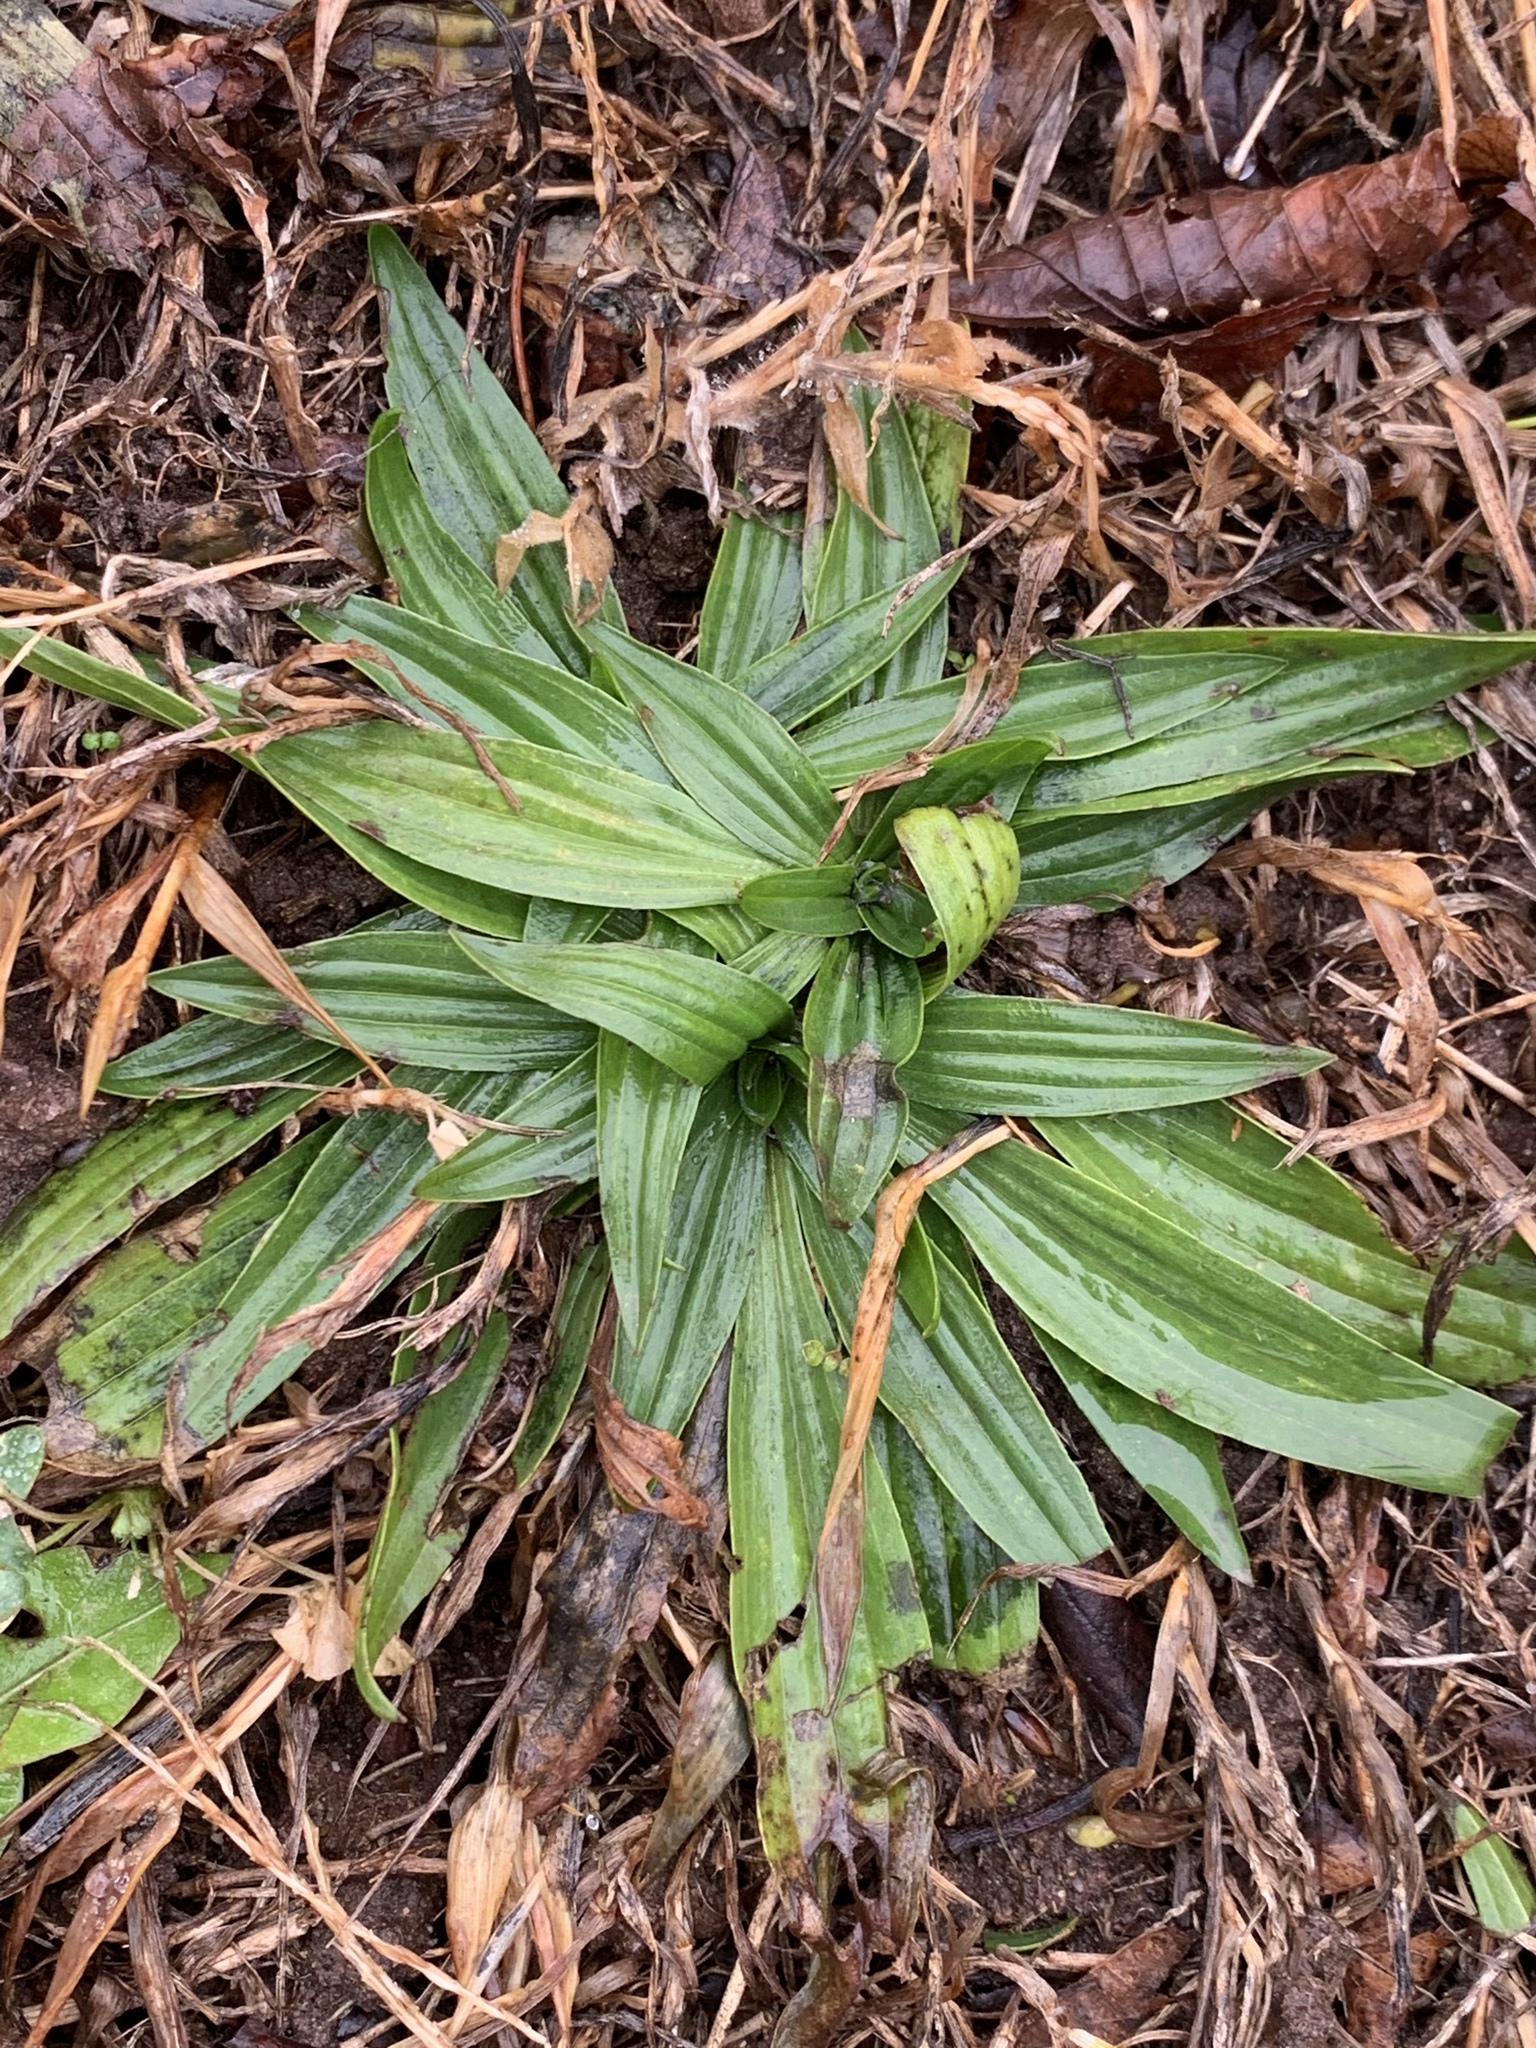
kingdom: Plantae
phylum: Tracheophyta
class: Magnoliopsida
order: Lamiales
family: Plantaginaceae
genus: Plantago
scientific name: Plantago lanceolata
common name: Ribwort plantain
